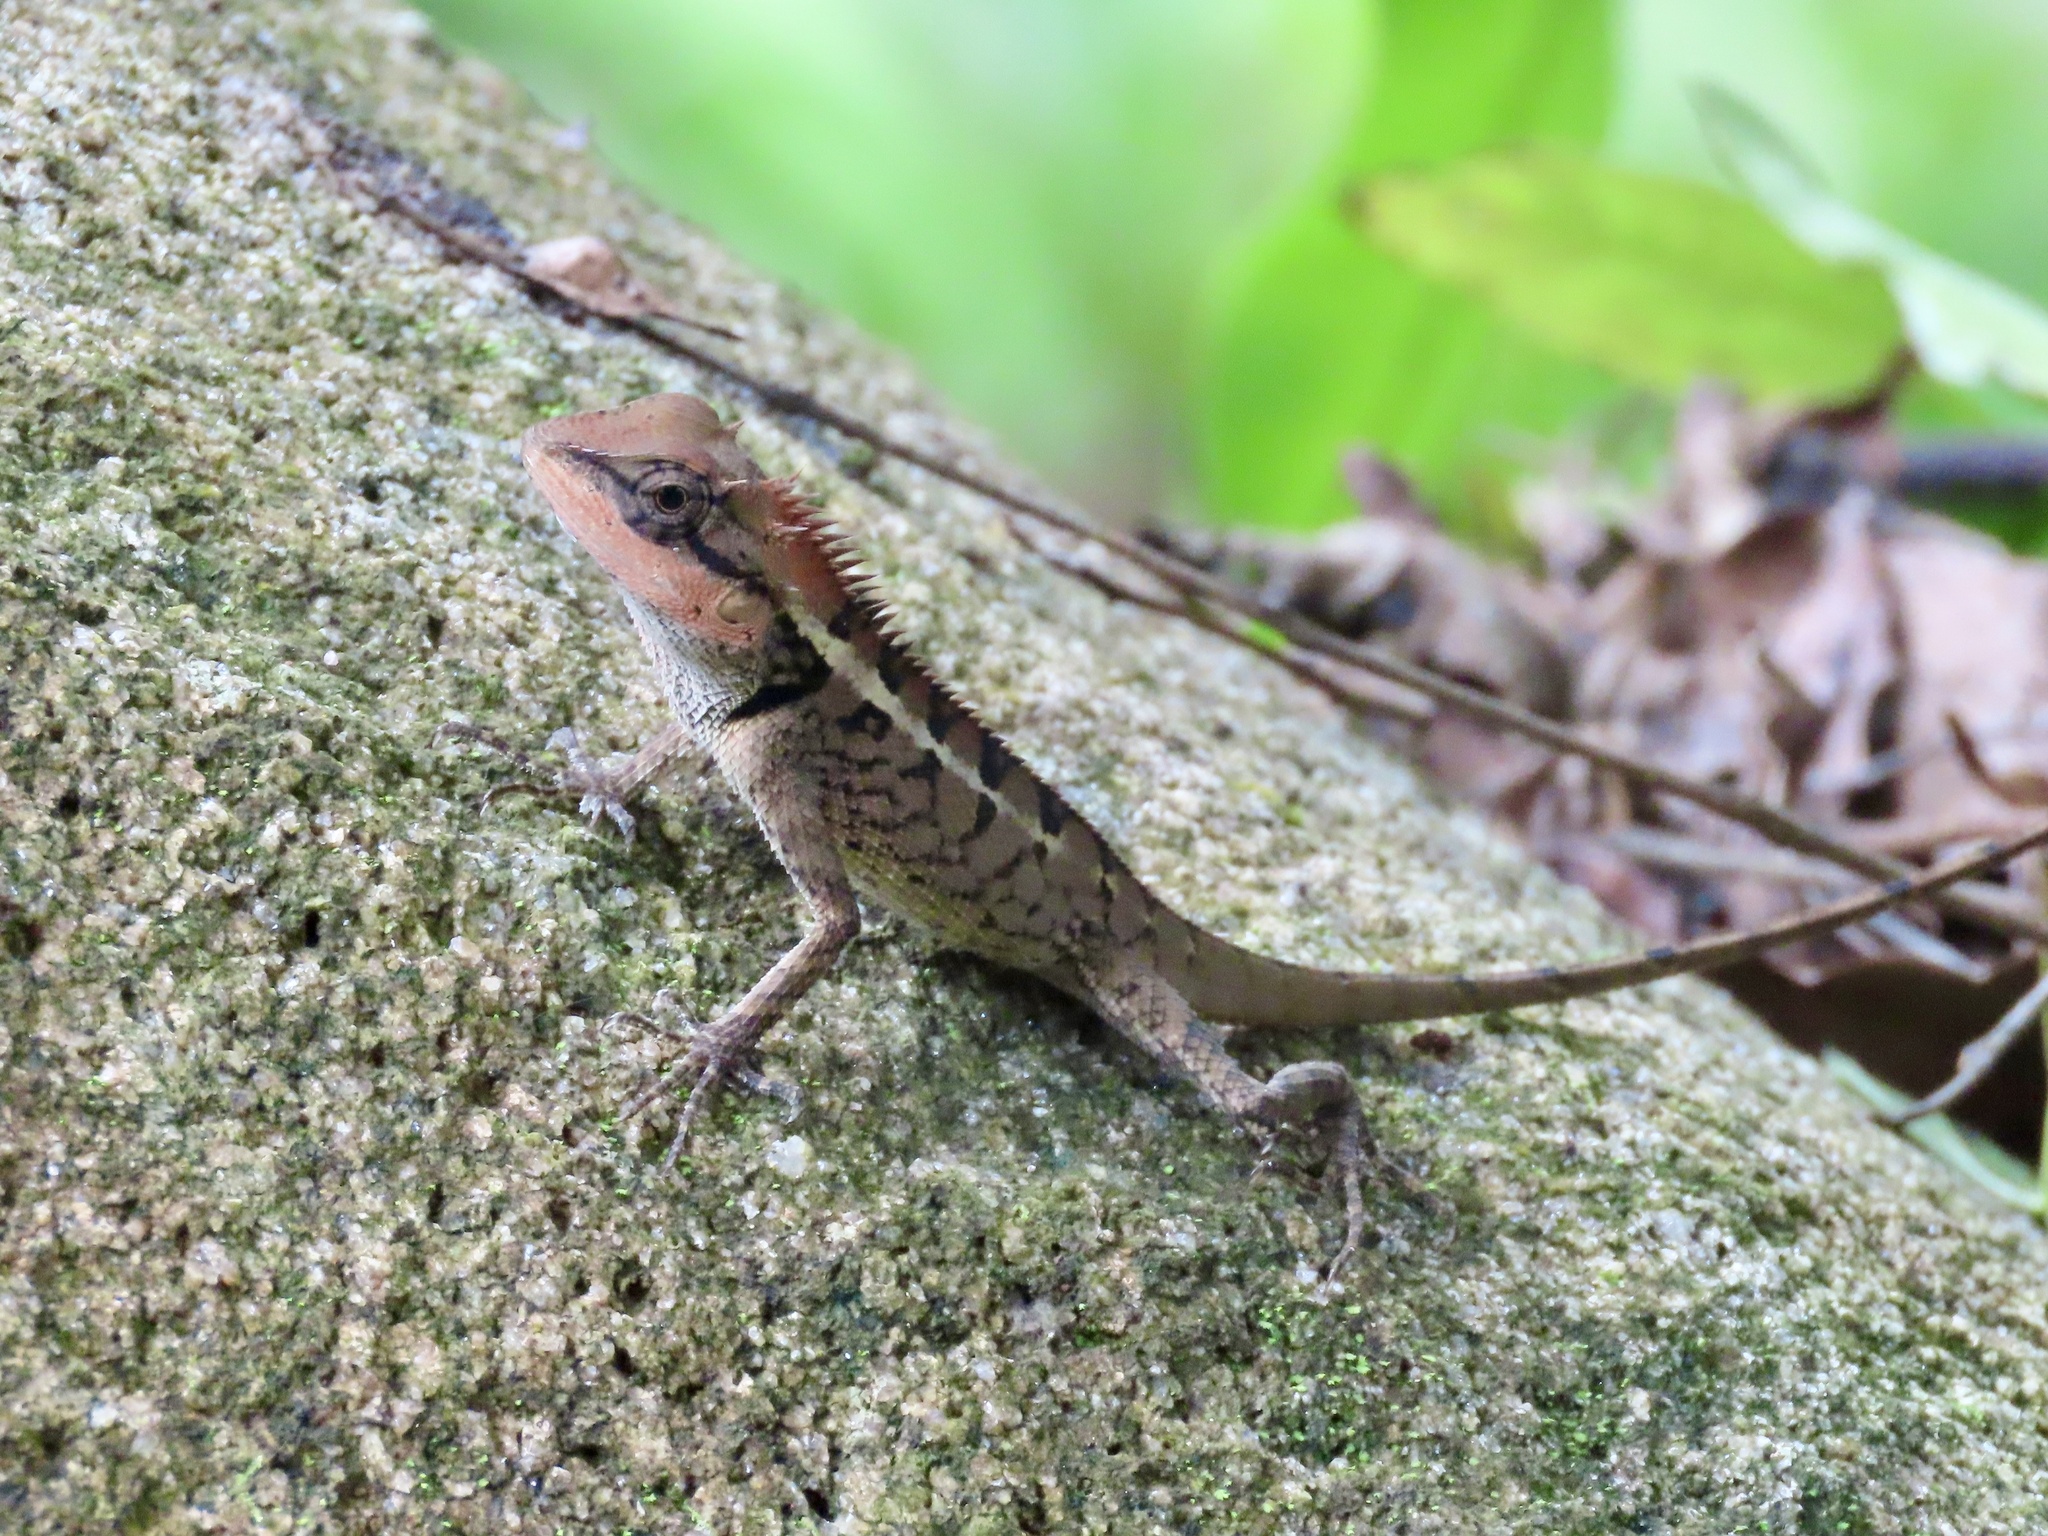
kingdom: Animalia
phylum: Chordata
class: Squamata
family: Agamidae
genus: Calotes
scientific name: Calotes emma
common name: Thailand bloodsucker
